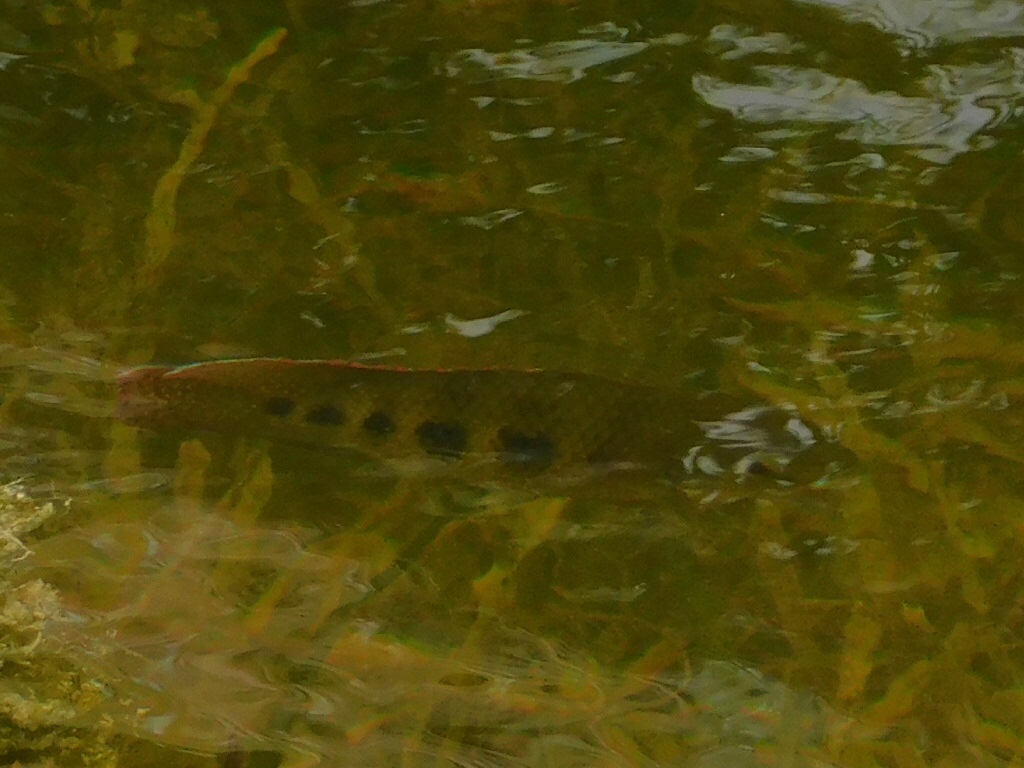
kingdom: Animalia
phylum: Chordata
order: Perciformes
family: Cichlidae
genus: Pelmatolapia
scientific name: Pelmatolapia mariae
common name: Spotted tilapia
